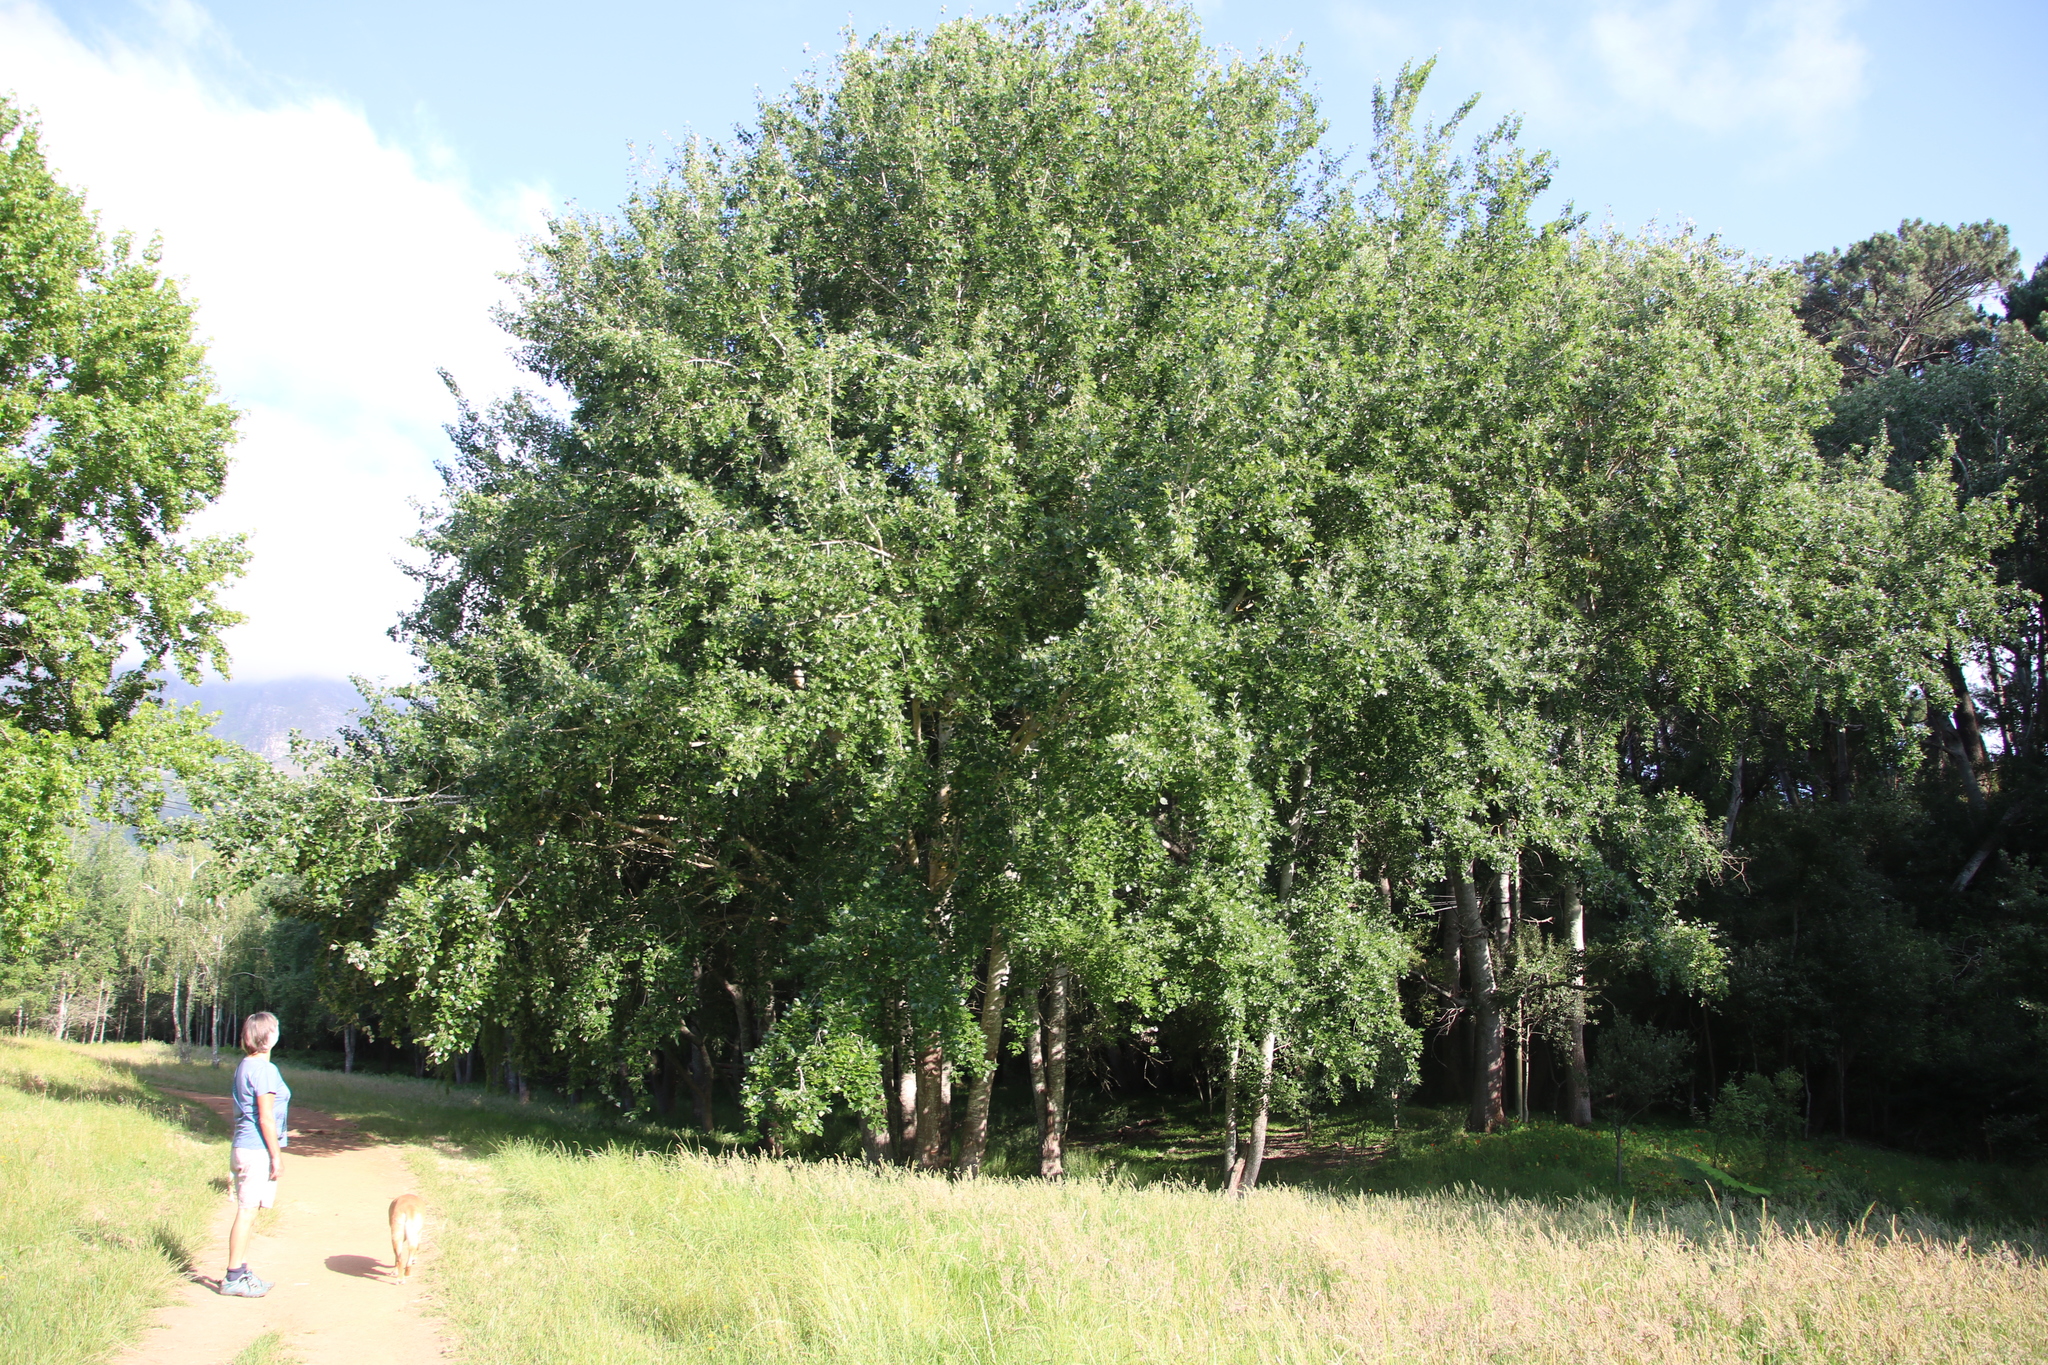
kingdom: Plantae
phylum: Tracheophyta
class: Magnoliopsida
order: Malpighiales
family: Salicaceae
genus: Populus
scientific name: Populus canescens
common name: Gray poplar
